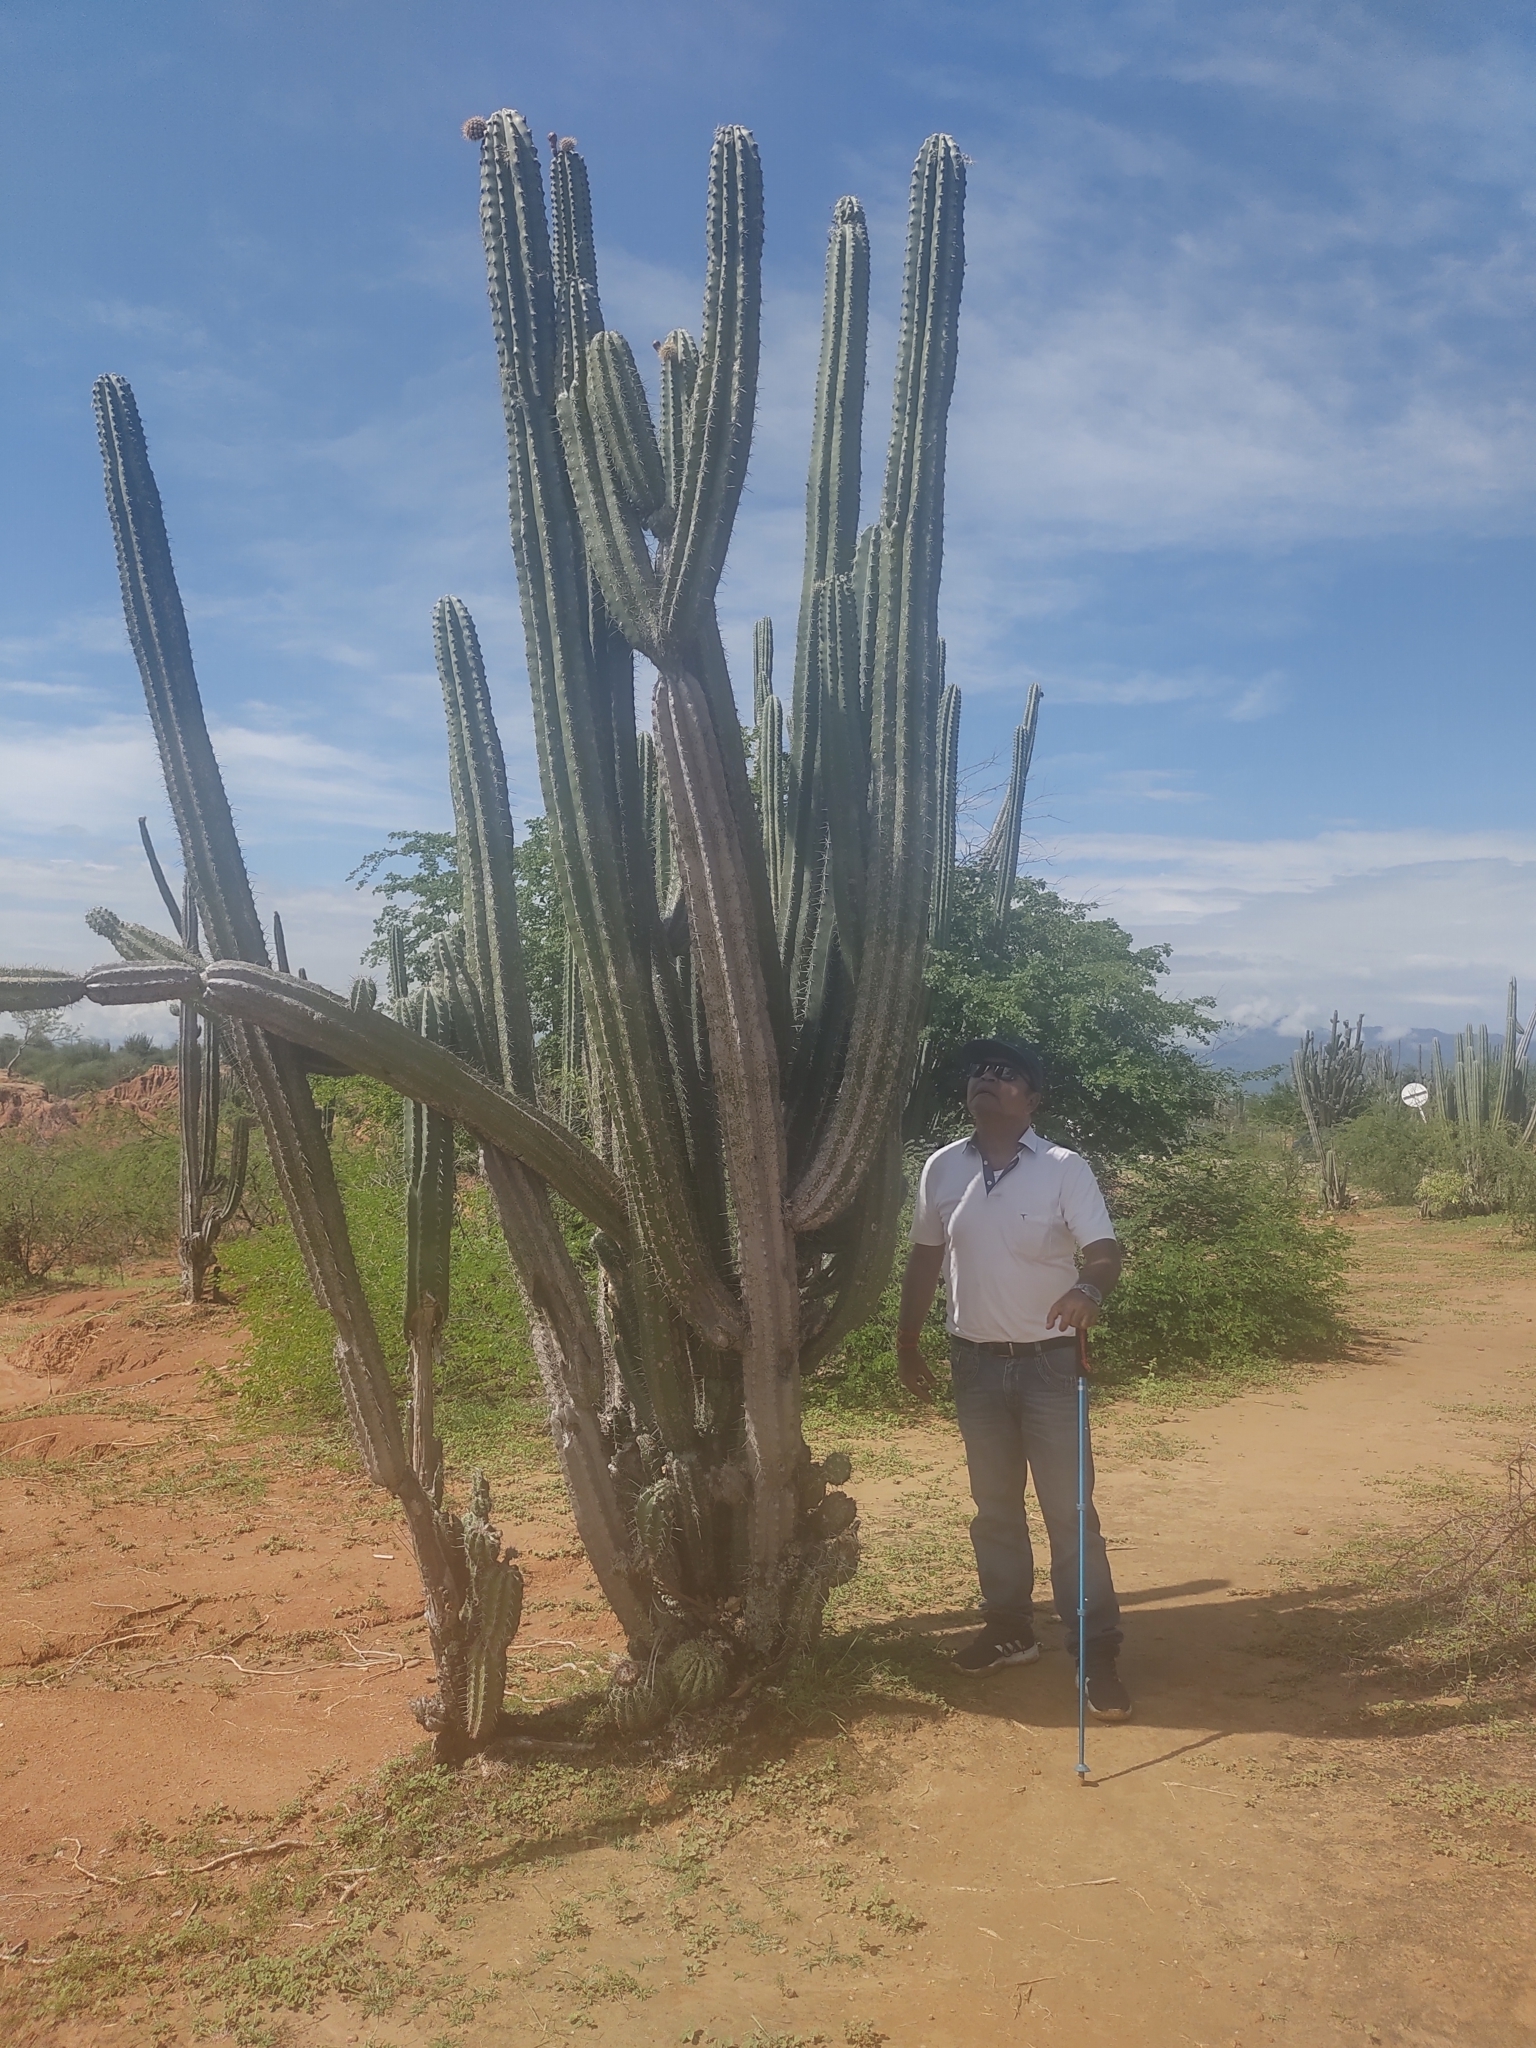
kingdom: Plantae
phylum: Tracheophyta
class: Magnoliopsida
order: Caryophyllales
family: Cactaceae
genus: Stenocereus
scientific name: Stenocereus griseus
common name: Tall candelabra cactus
